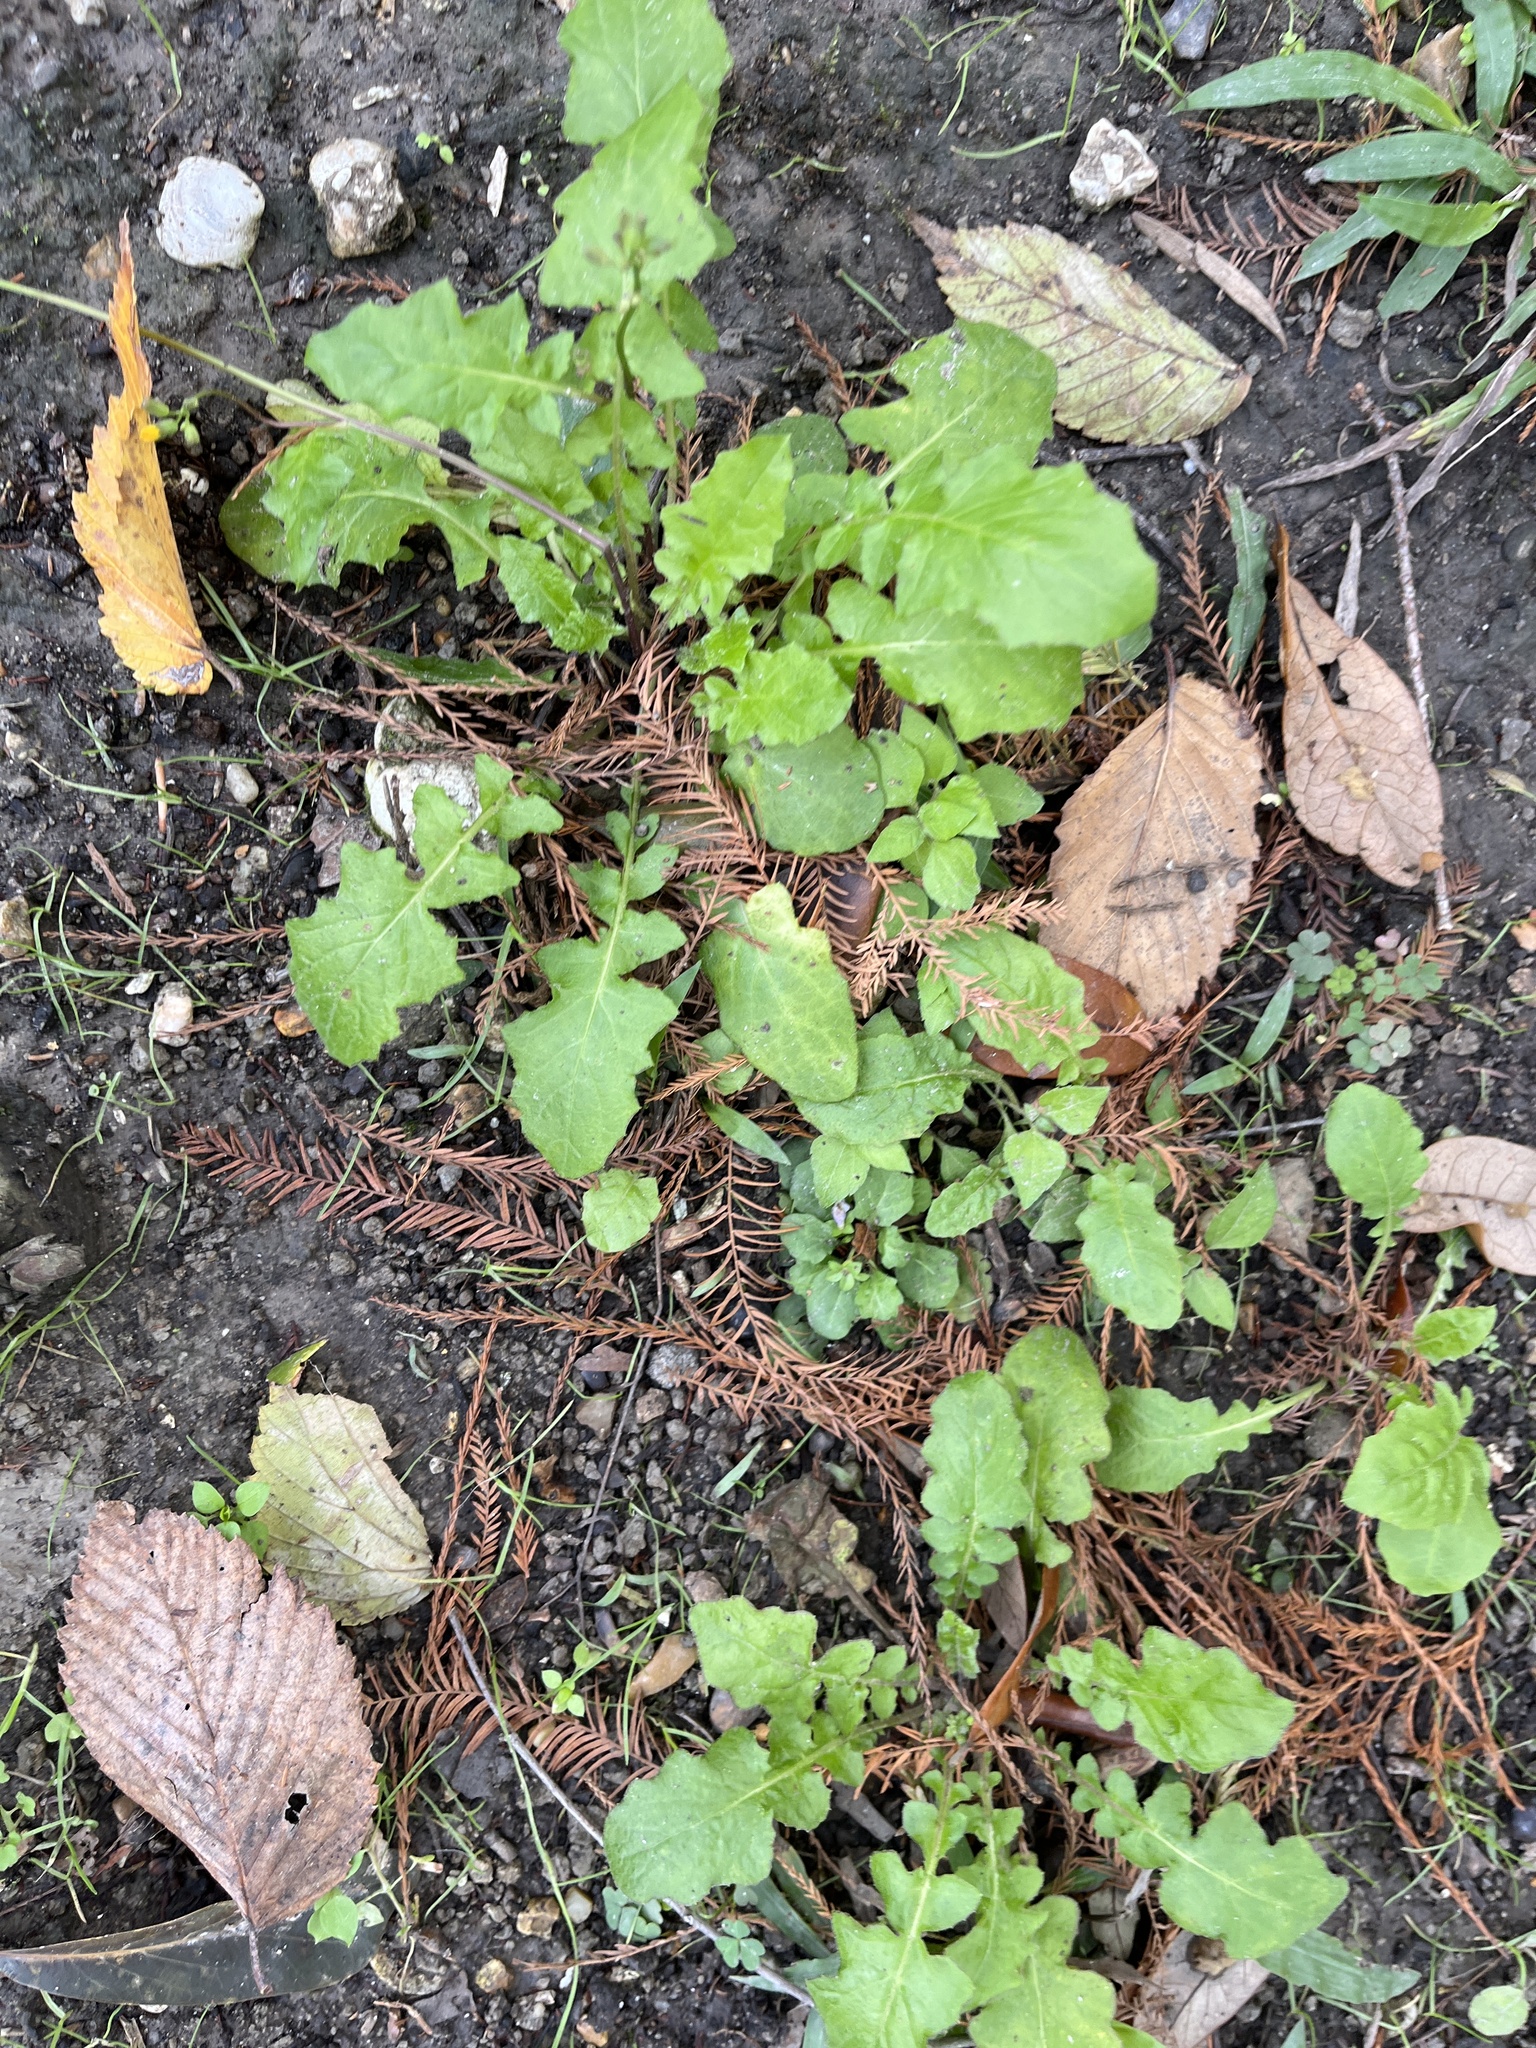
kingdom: Plantae
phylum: Tracheophyta
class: Magnoliopsida
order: Asterales
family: Asteraceae
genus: Youngia
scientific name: Youngia japonica
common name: Oriental false hawksbeard
